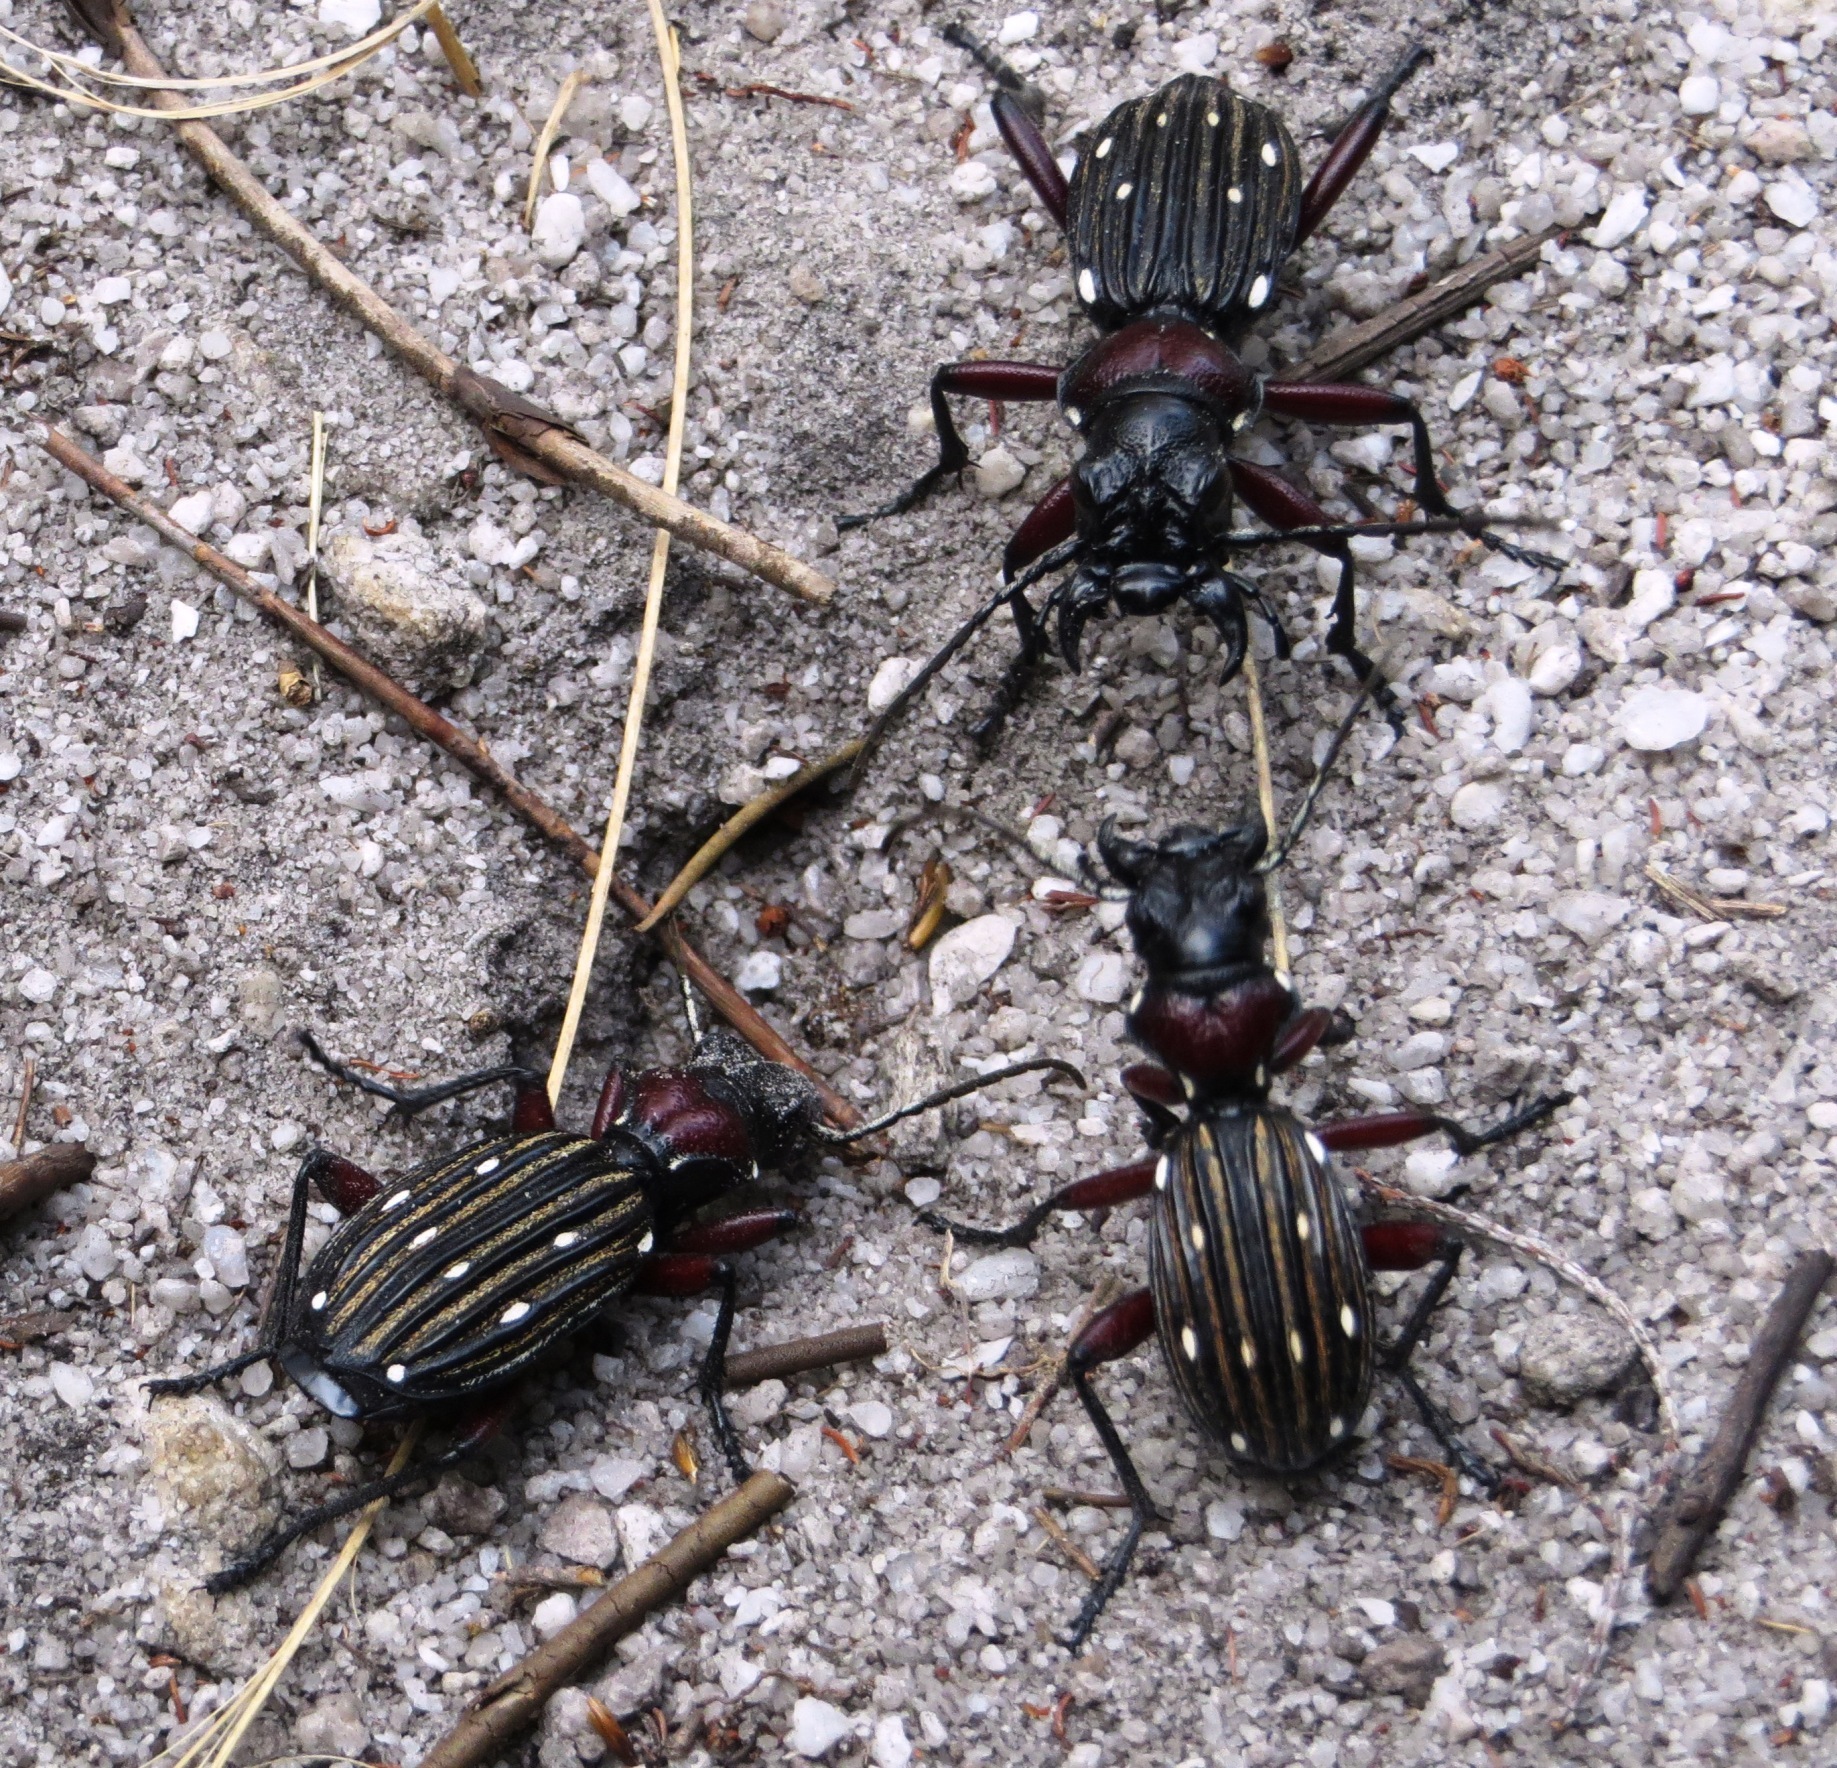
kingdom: Animalia
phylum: Arthropoda
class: Insecta
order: Coleoptera
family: Carabidae
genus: Anthia
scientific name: Anthia decemguttata
